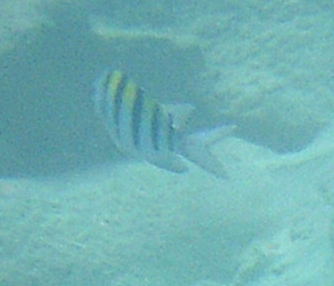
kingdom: Animalia
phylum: Chordata
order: Perciformes
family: Pomacentridae
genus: Abudefduf
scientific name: Abudefduf saxatilis
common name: Sergeant major
